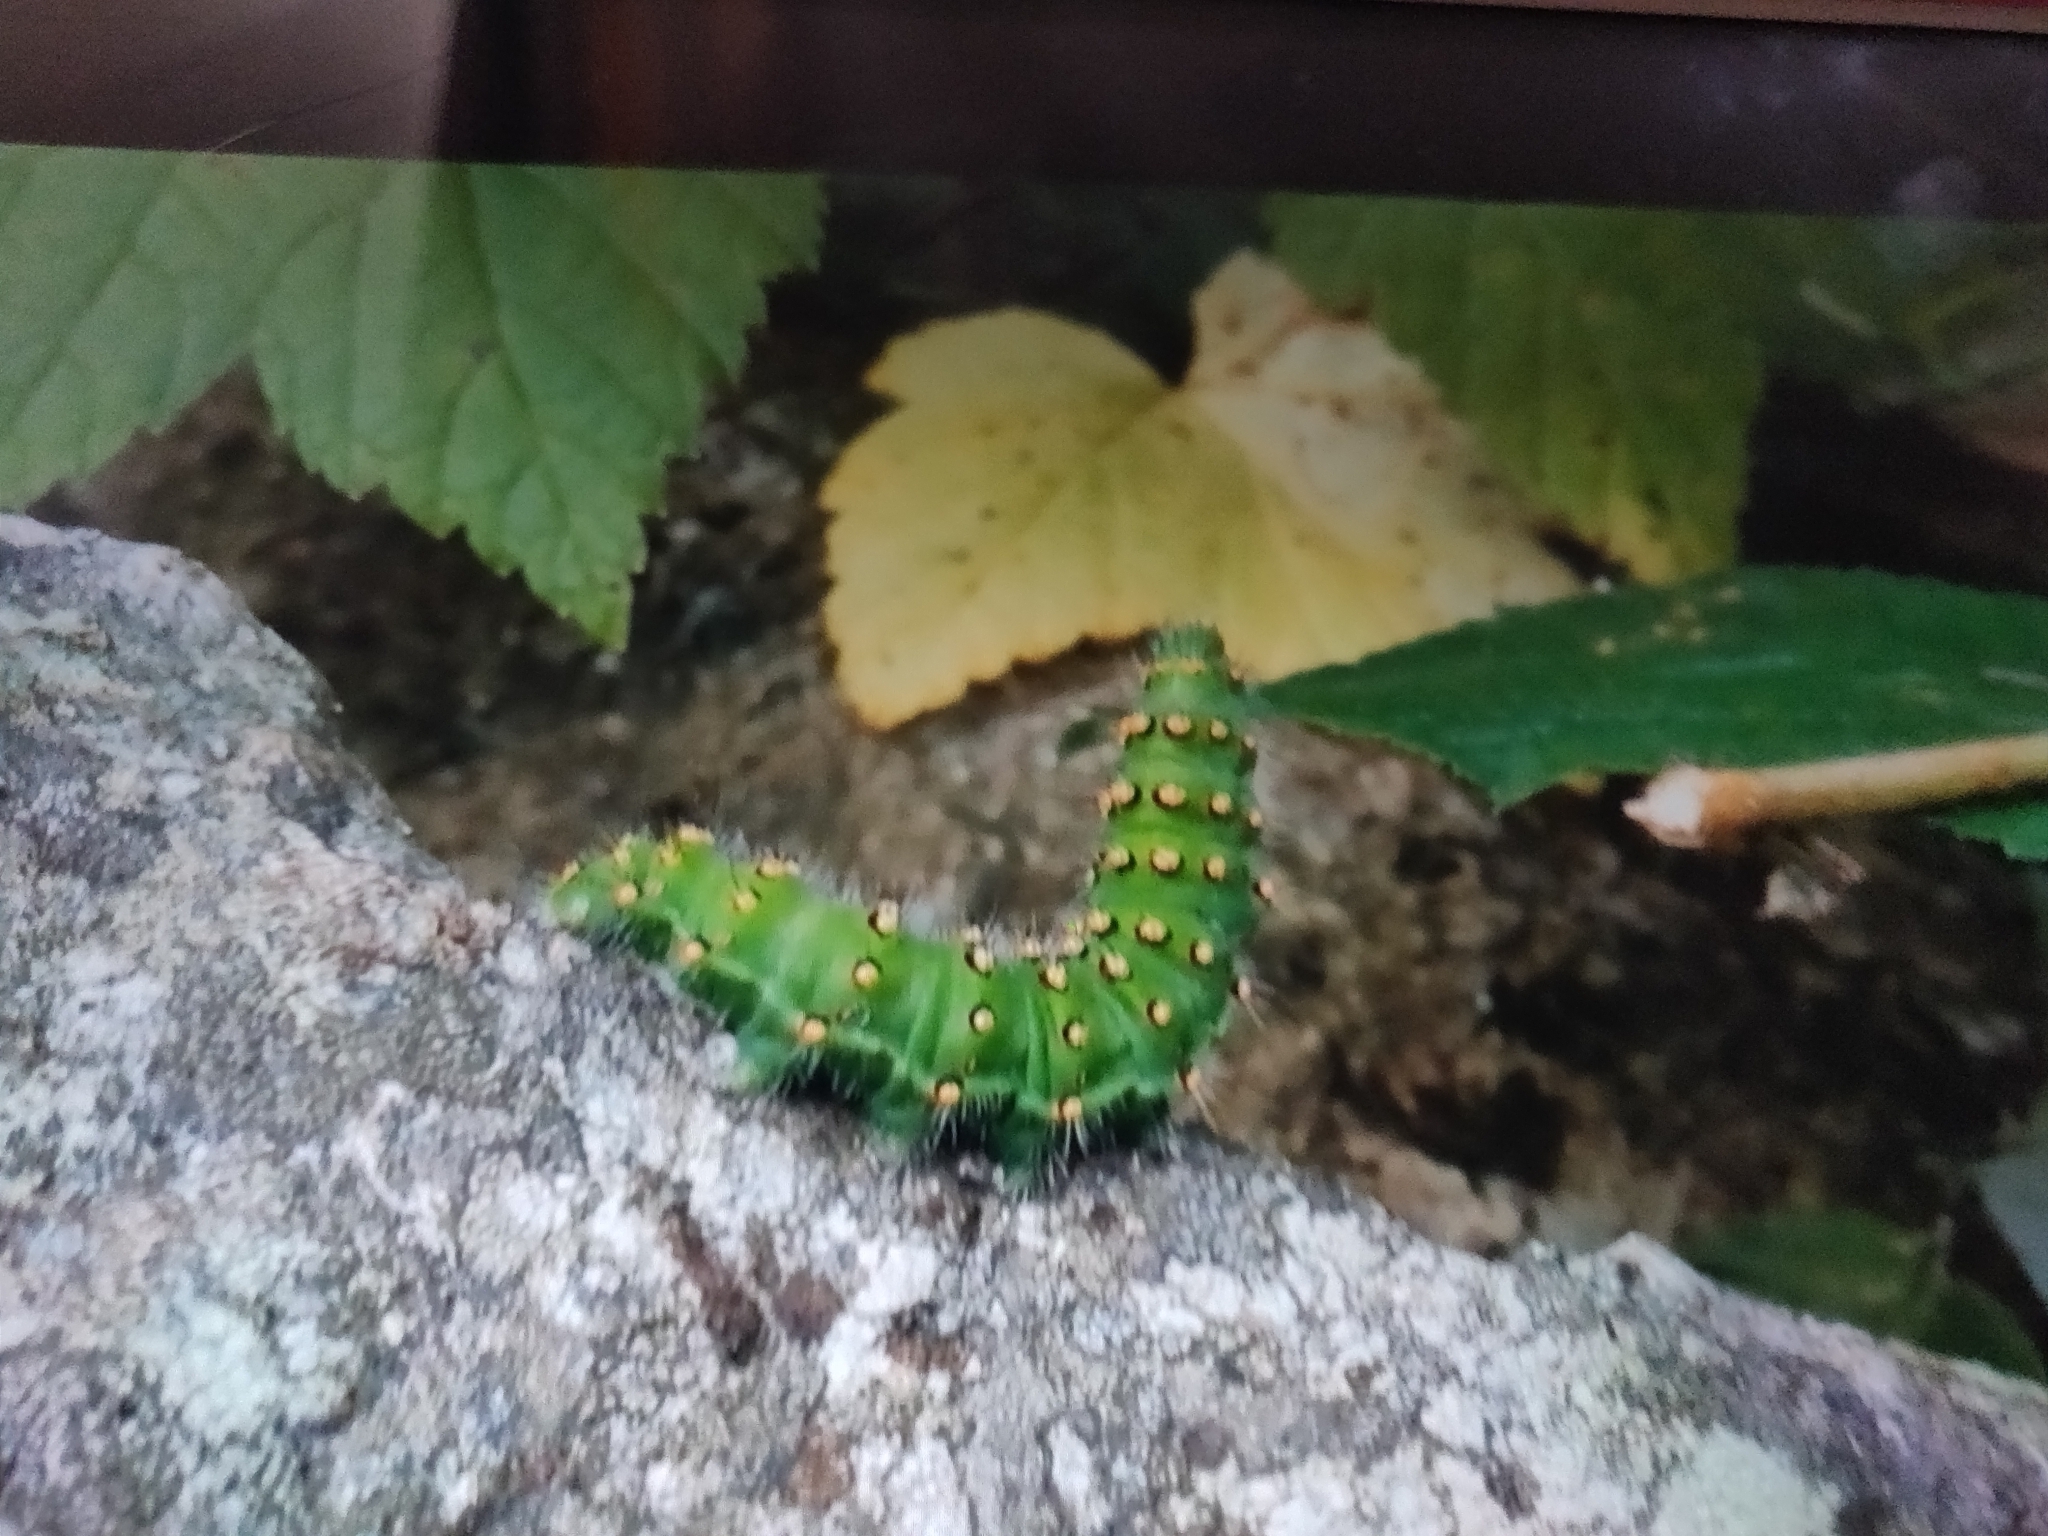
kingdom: Animalia
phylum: Arthropoda
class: Insecta
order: Lepidoptera
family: Saturniidae
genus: Saturnia
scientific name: Saturnia pavonia
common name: Emperor moth
